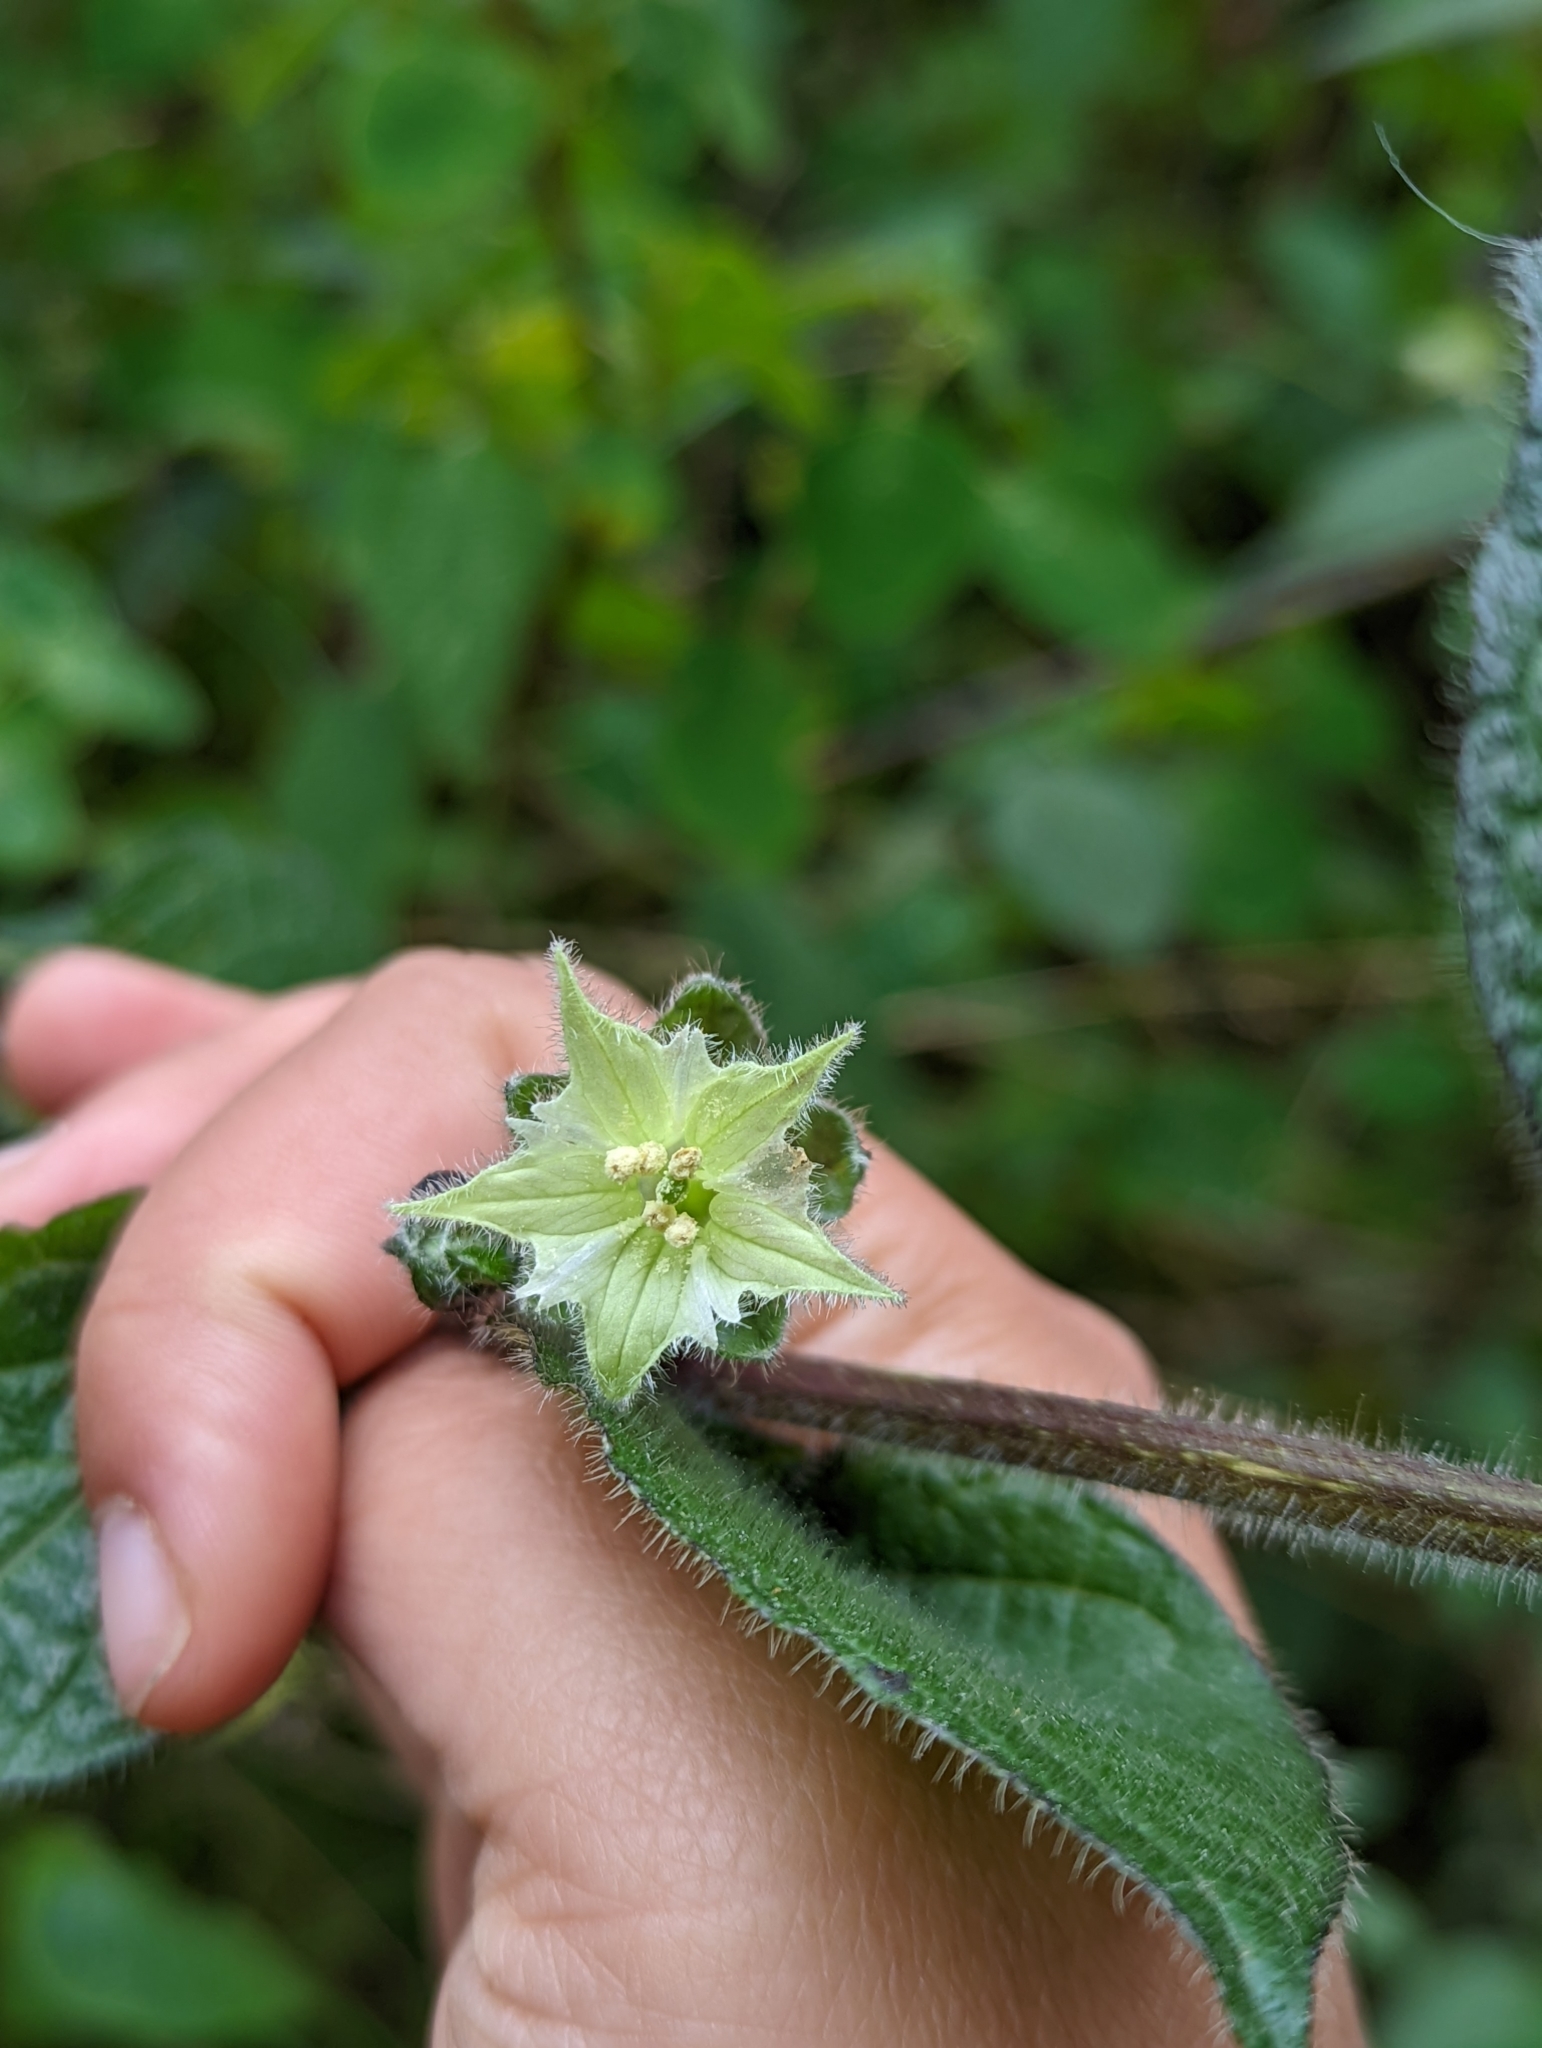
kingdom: Plantae
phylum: Tracheophyta
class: Magnoliopsida
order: Solanales
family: Solanaceae
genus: Jaltomata
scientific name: Jaltomata viridiflora
